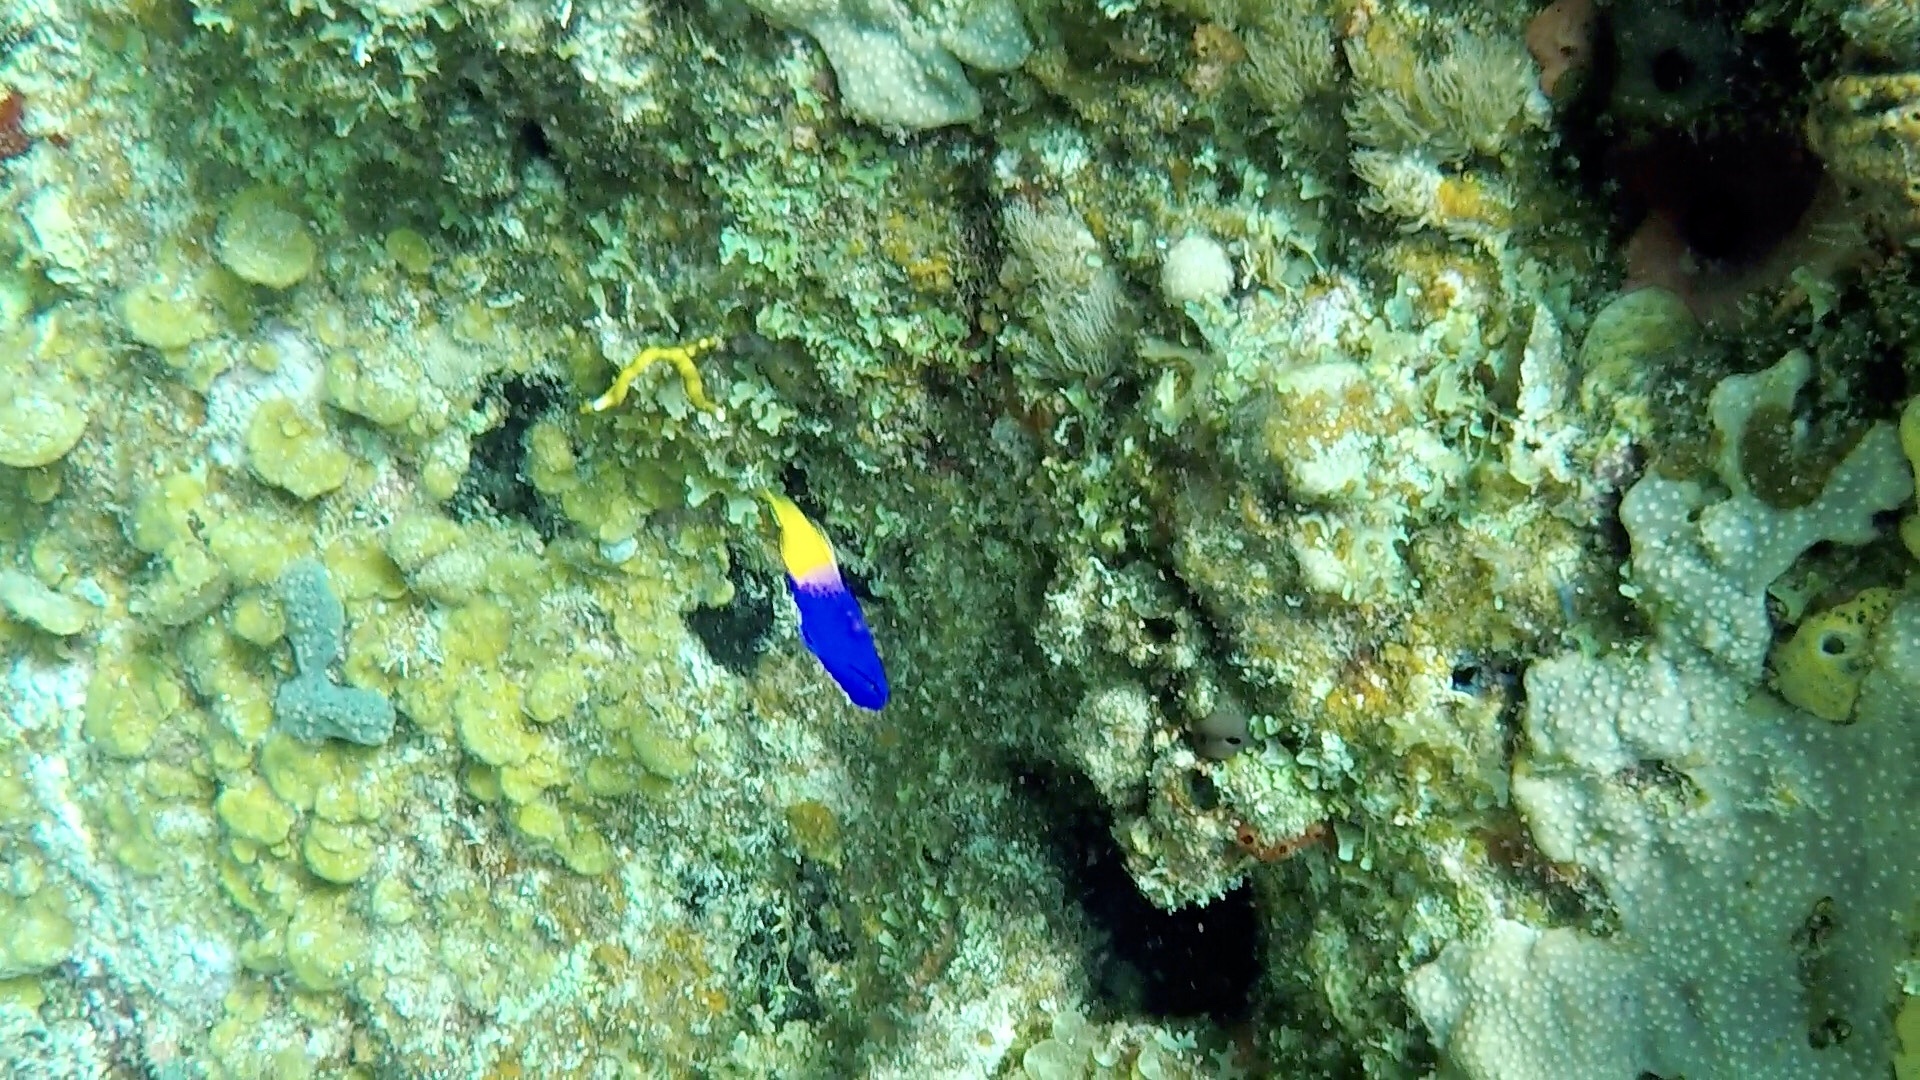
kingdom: Animalia
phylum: Chordata
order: Perciformes
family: Grammatidae
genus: Gramma
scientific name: Gramma loreto
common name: Fairy basslet
